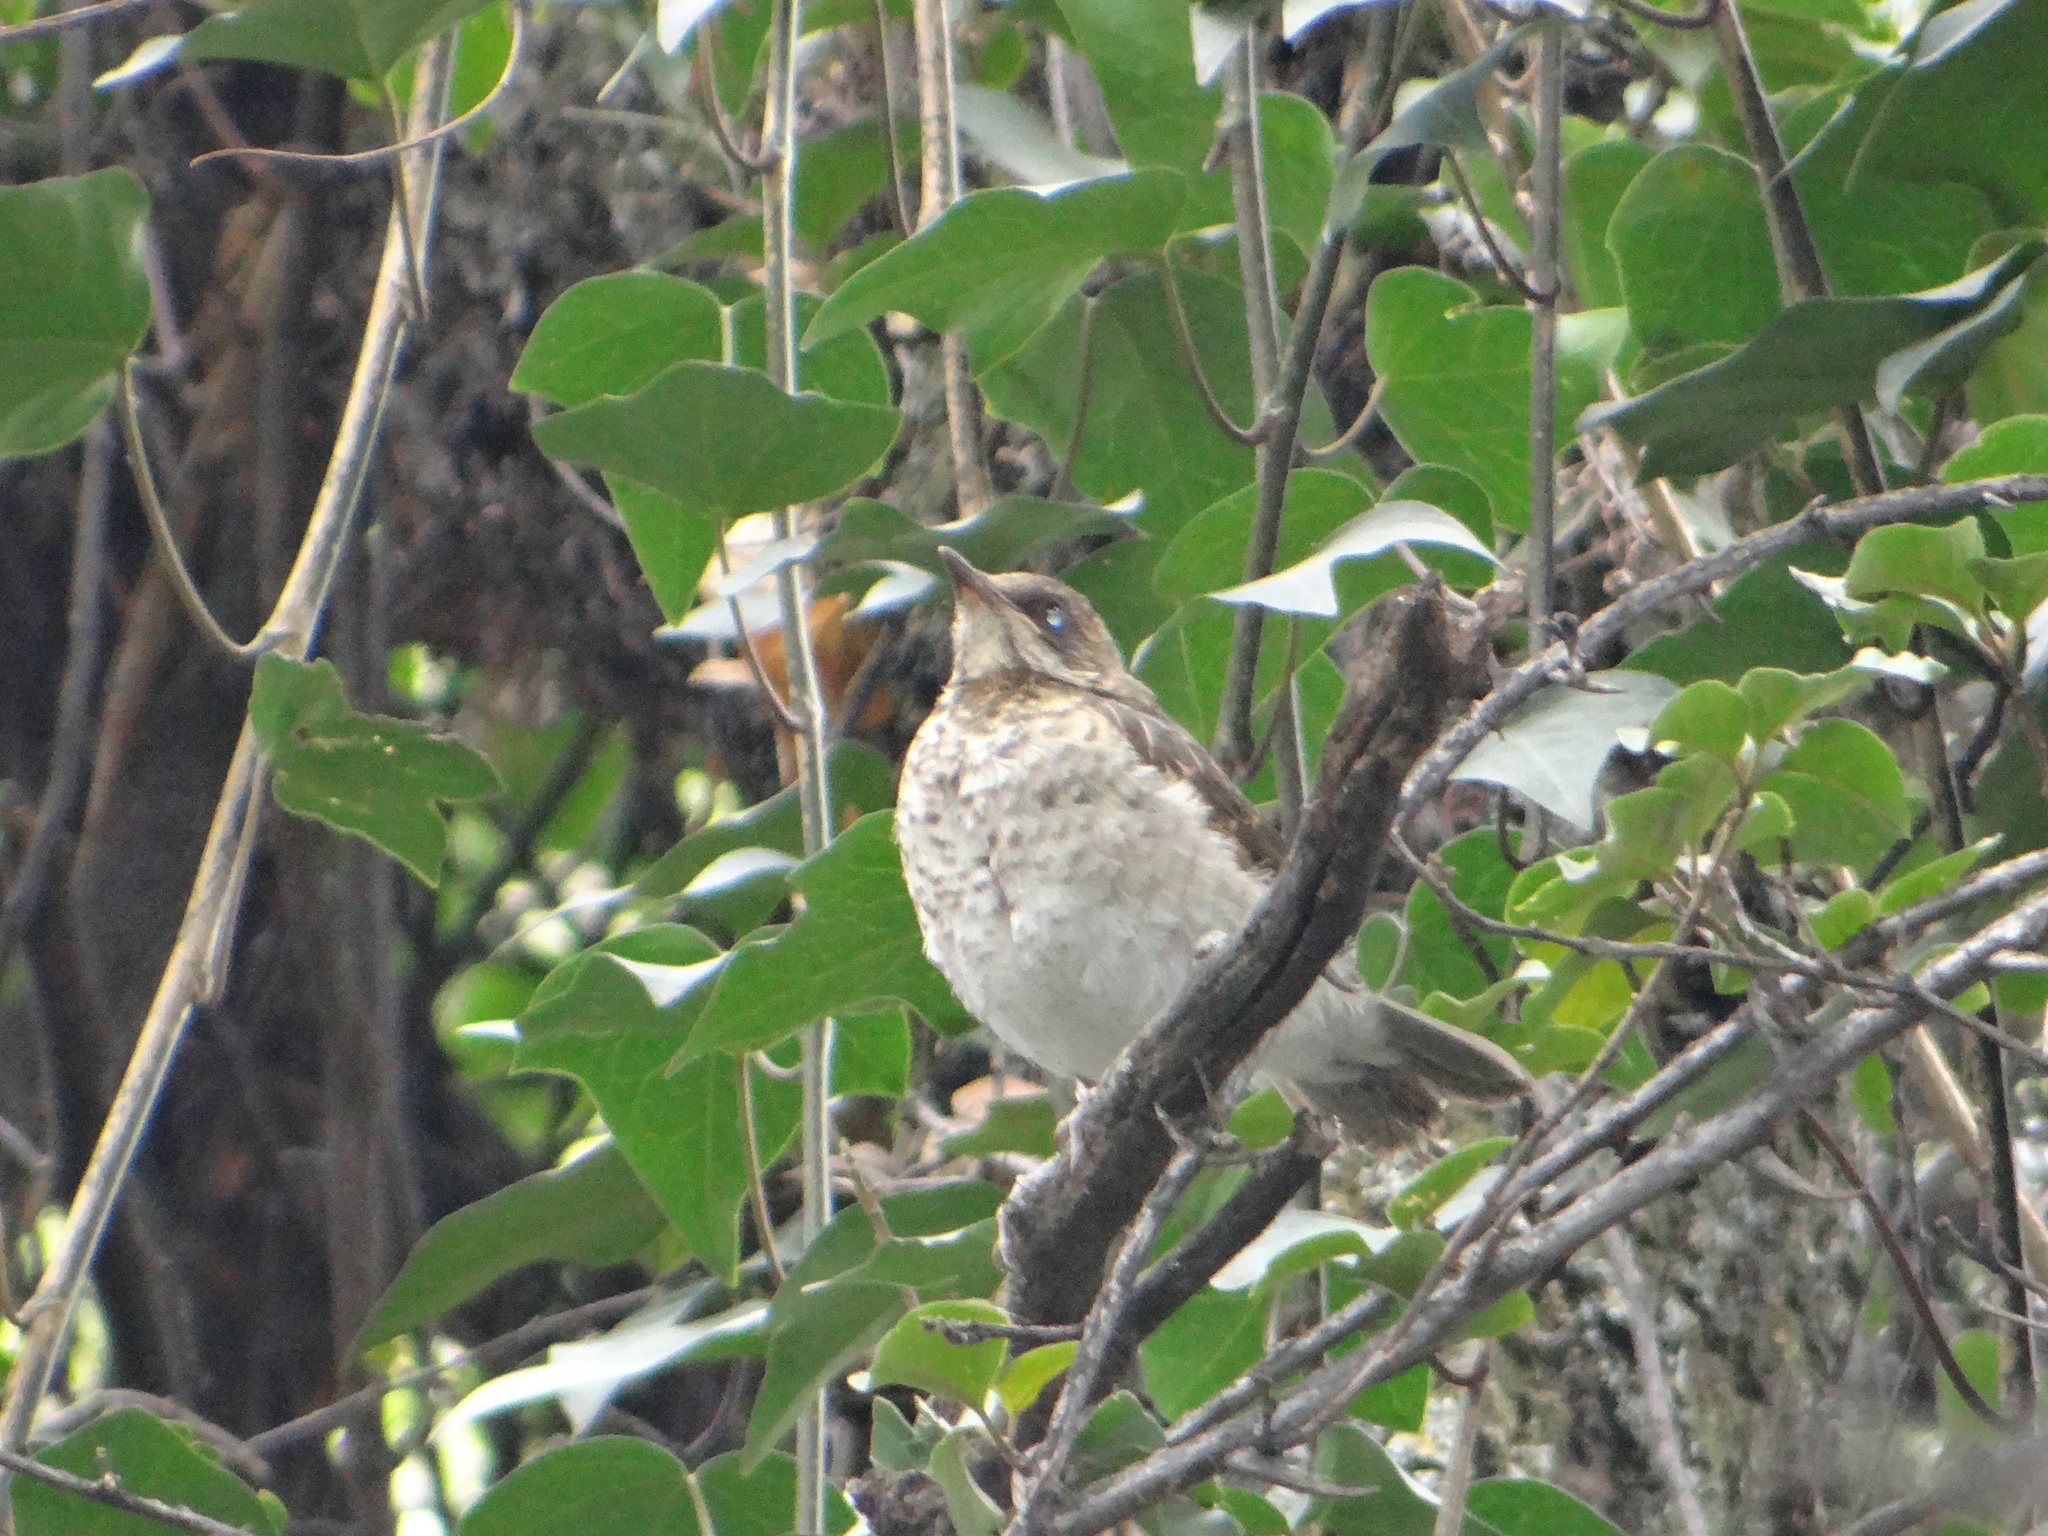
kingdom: Animalia
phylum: Chordata
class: Aves
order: Passeriformes
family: Turdidae
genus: Turdus
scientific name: Turdus ignobilis
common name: Black-billed thrush
